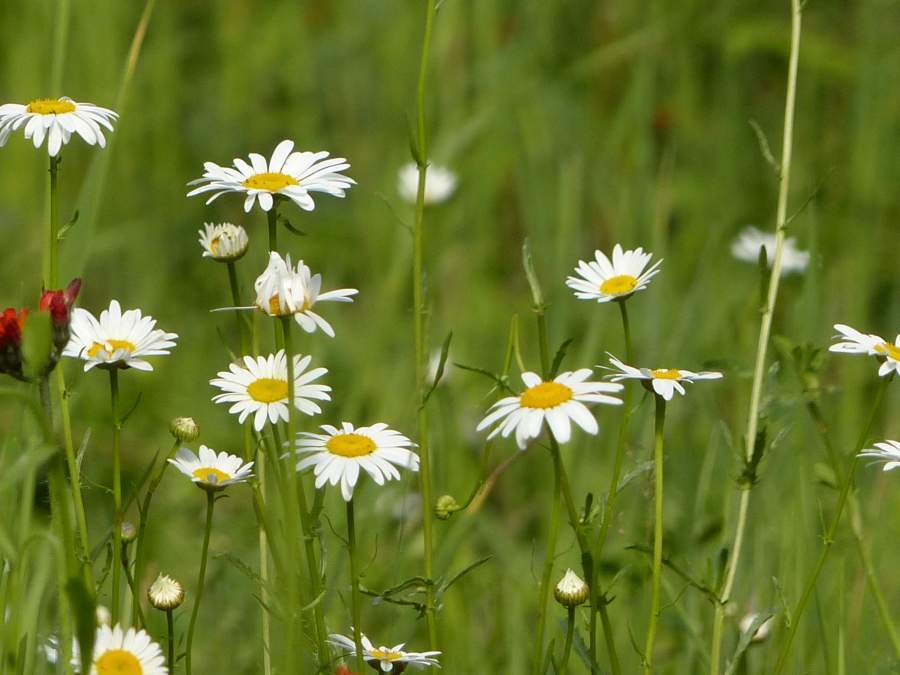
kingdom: Plantae
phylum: Tracheophyta
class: Magnoliopsida
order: Asterales
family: Asteraceae
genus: Leucanthemum
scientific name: Leucanthemum vulgare
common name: Oxeye daisy
